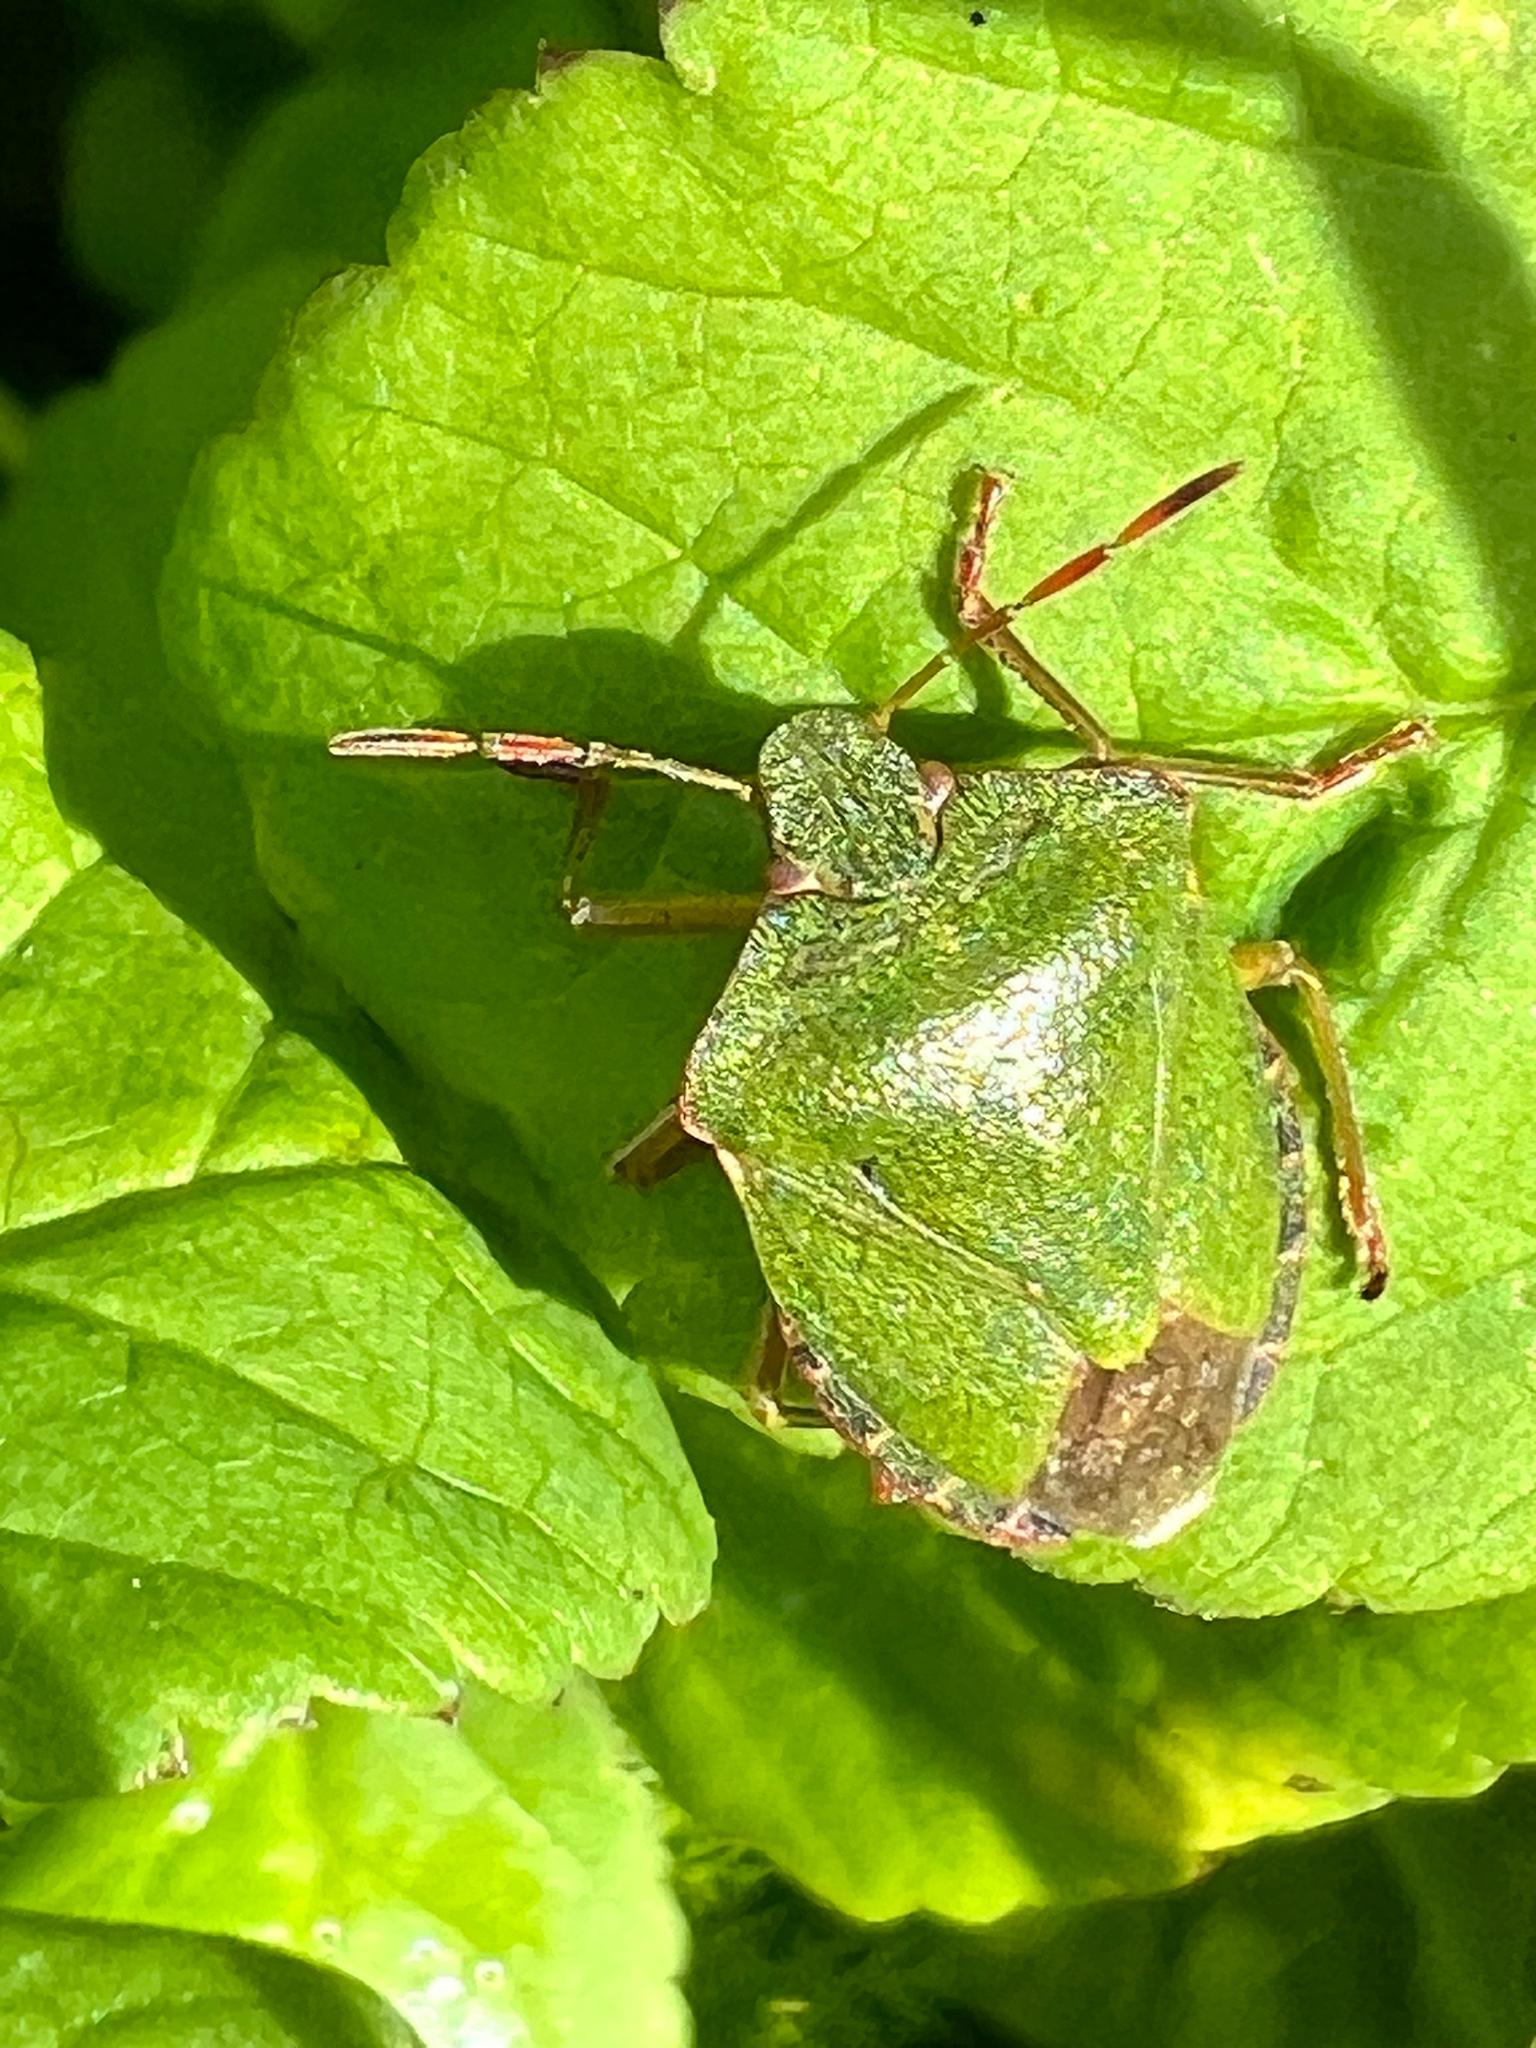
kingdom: Animalia
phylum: Arthropoda
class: Insecta
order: Hemiptera
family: Pentatomidae
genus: Palomena
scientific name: Palomena prasina
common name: Green shieldbug
